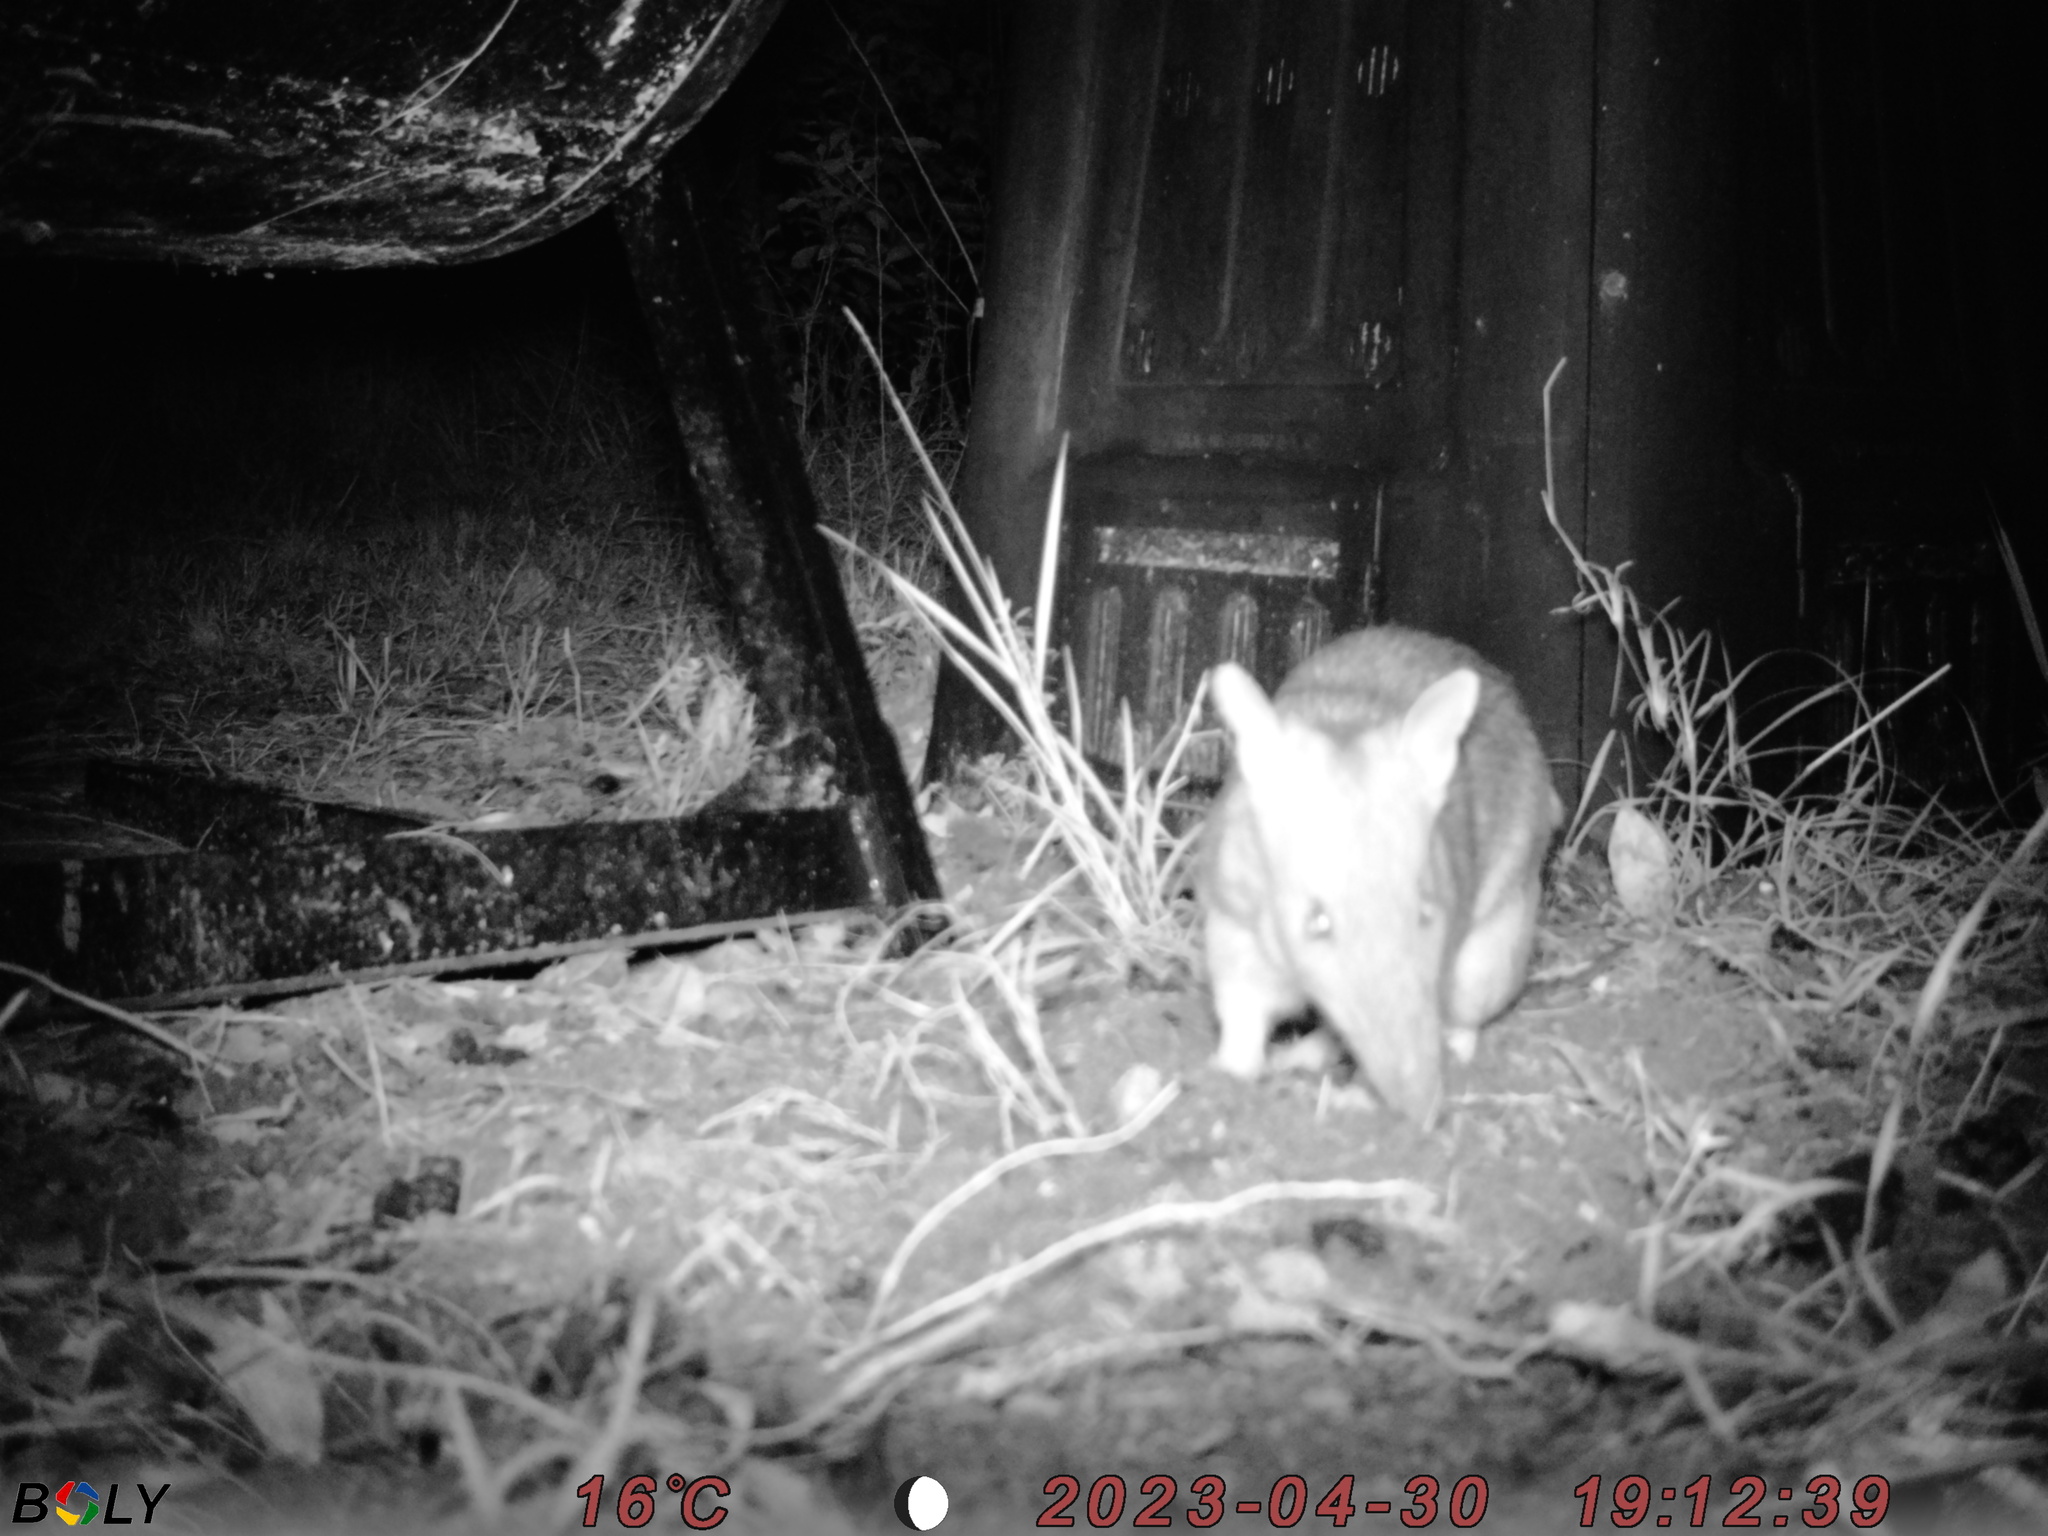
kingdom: Animalia
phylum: Chordata
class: Mammalia
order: Peramelemorphia
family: Peramelidae
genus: Perameles
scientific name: Perameles nasuta
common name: Long-nosed bandicoot
